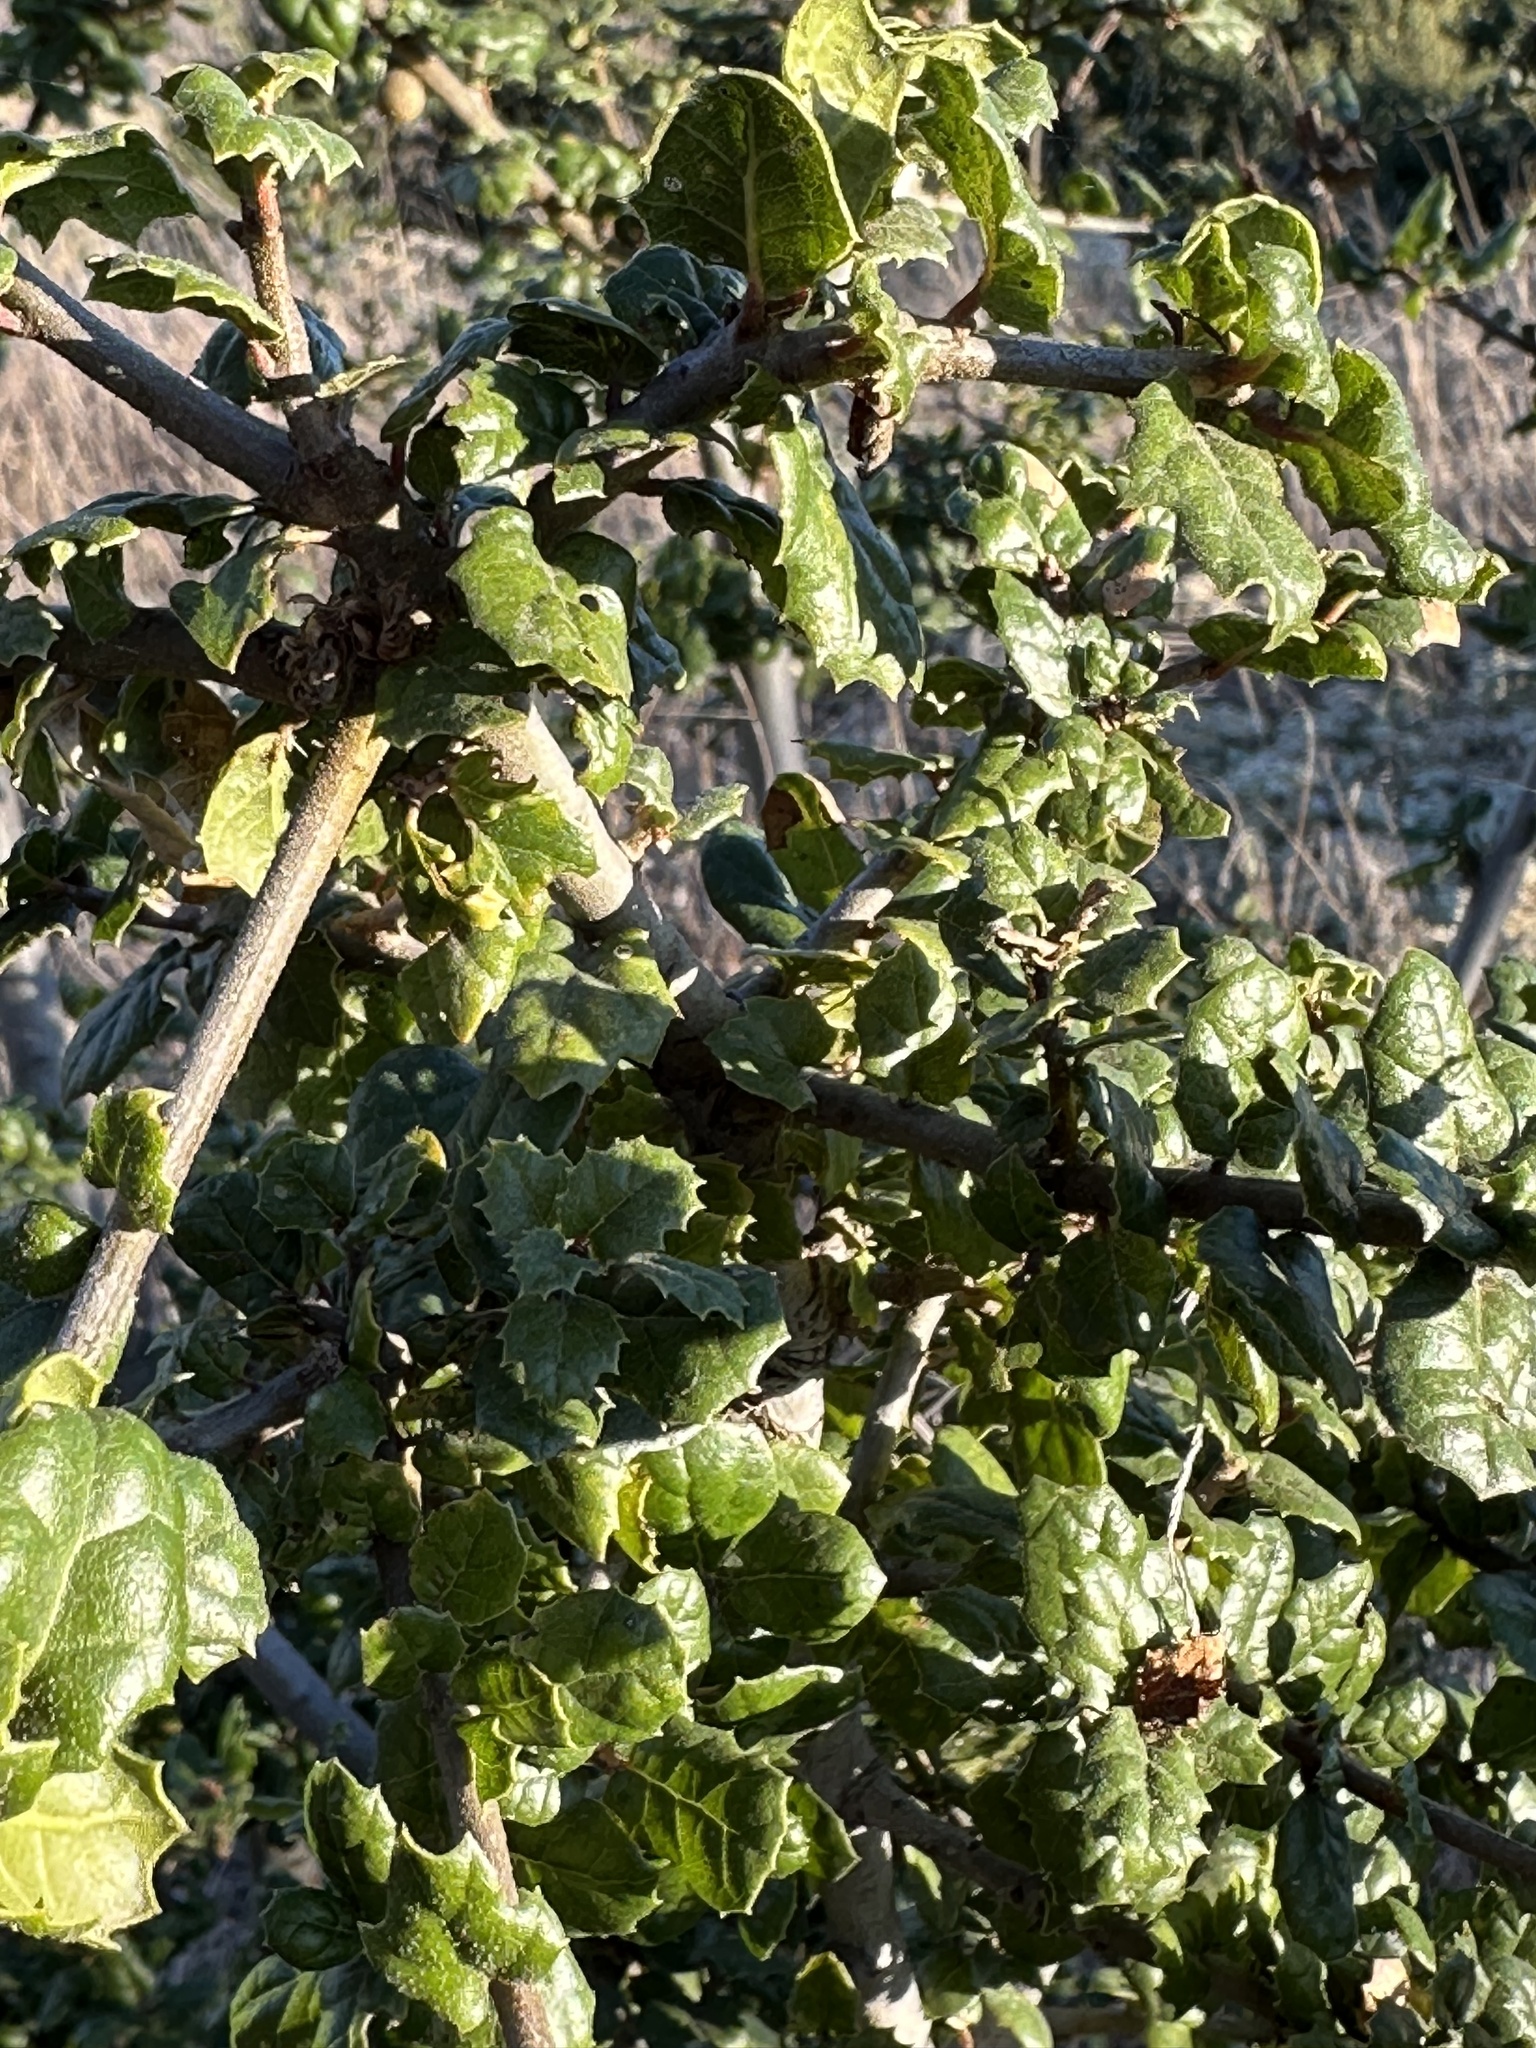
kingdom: Plantae
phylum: Tracheophyta
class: Magnoliopsida
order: Fagales
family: Fagaceae
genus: Quercus
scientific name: Quercus agrifolia
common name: California live oak
